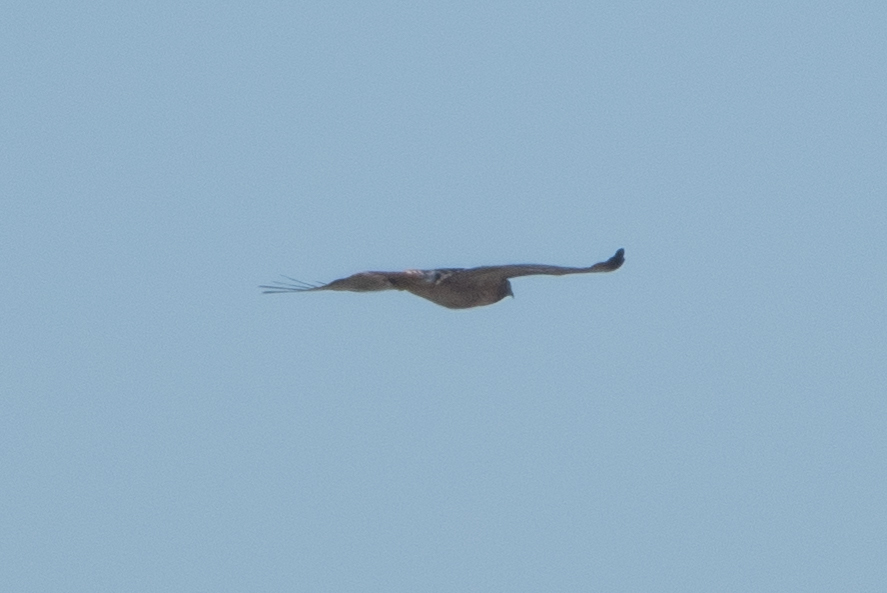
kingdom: Animalia
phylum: Chordata
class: Aves
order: Accipitriformes
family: Accipitridae
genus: Buteo
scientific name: Buteo jamaicensis
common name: Red-tailed hawk
